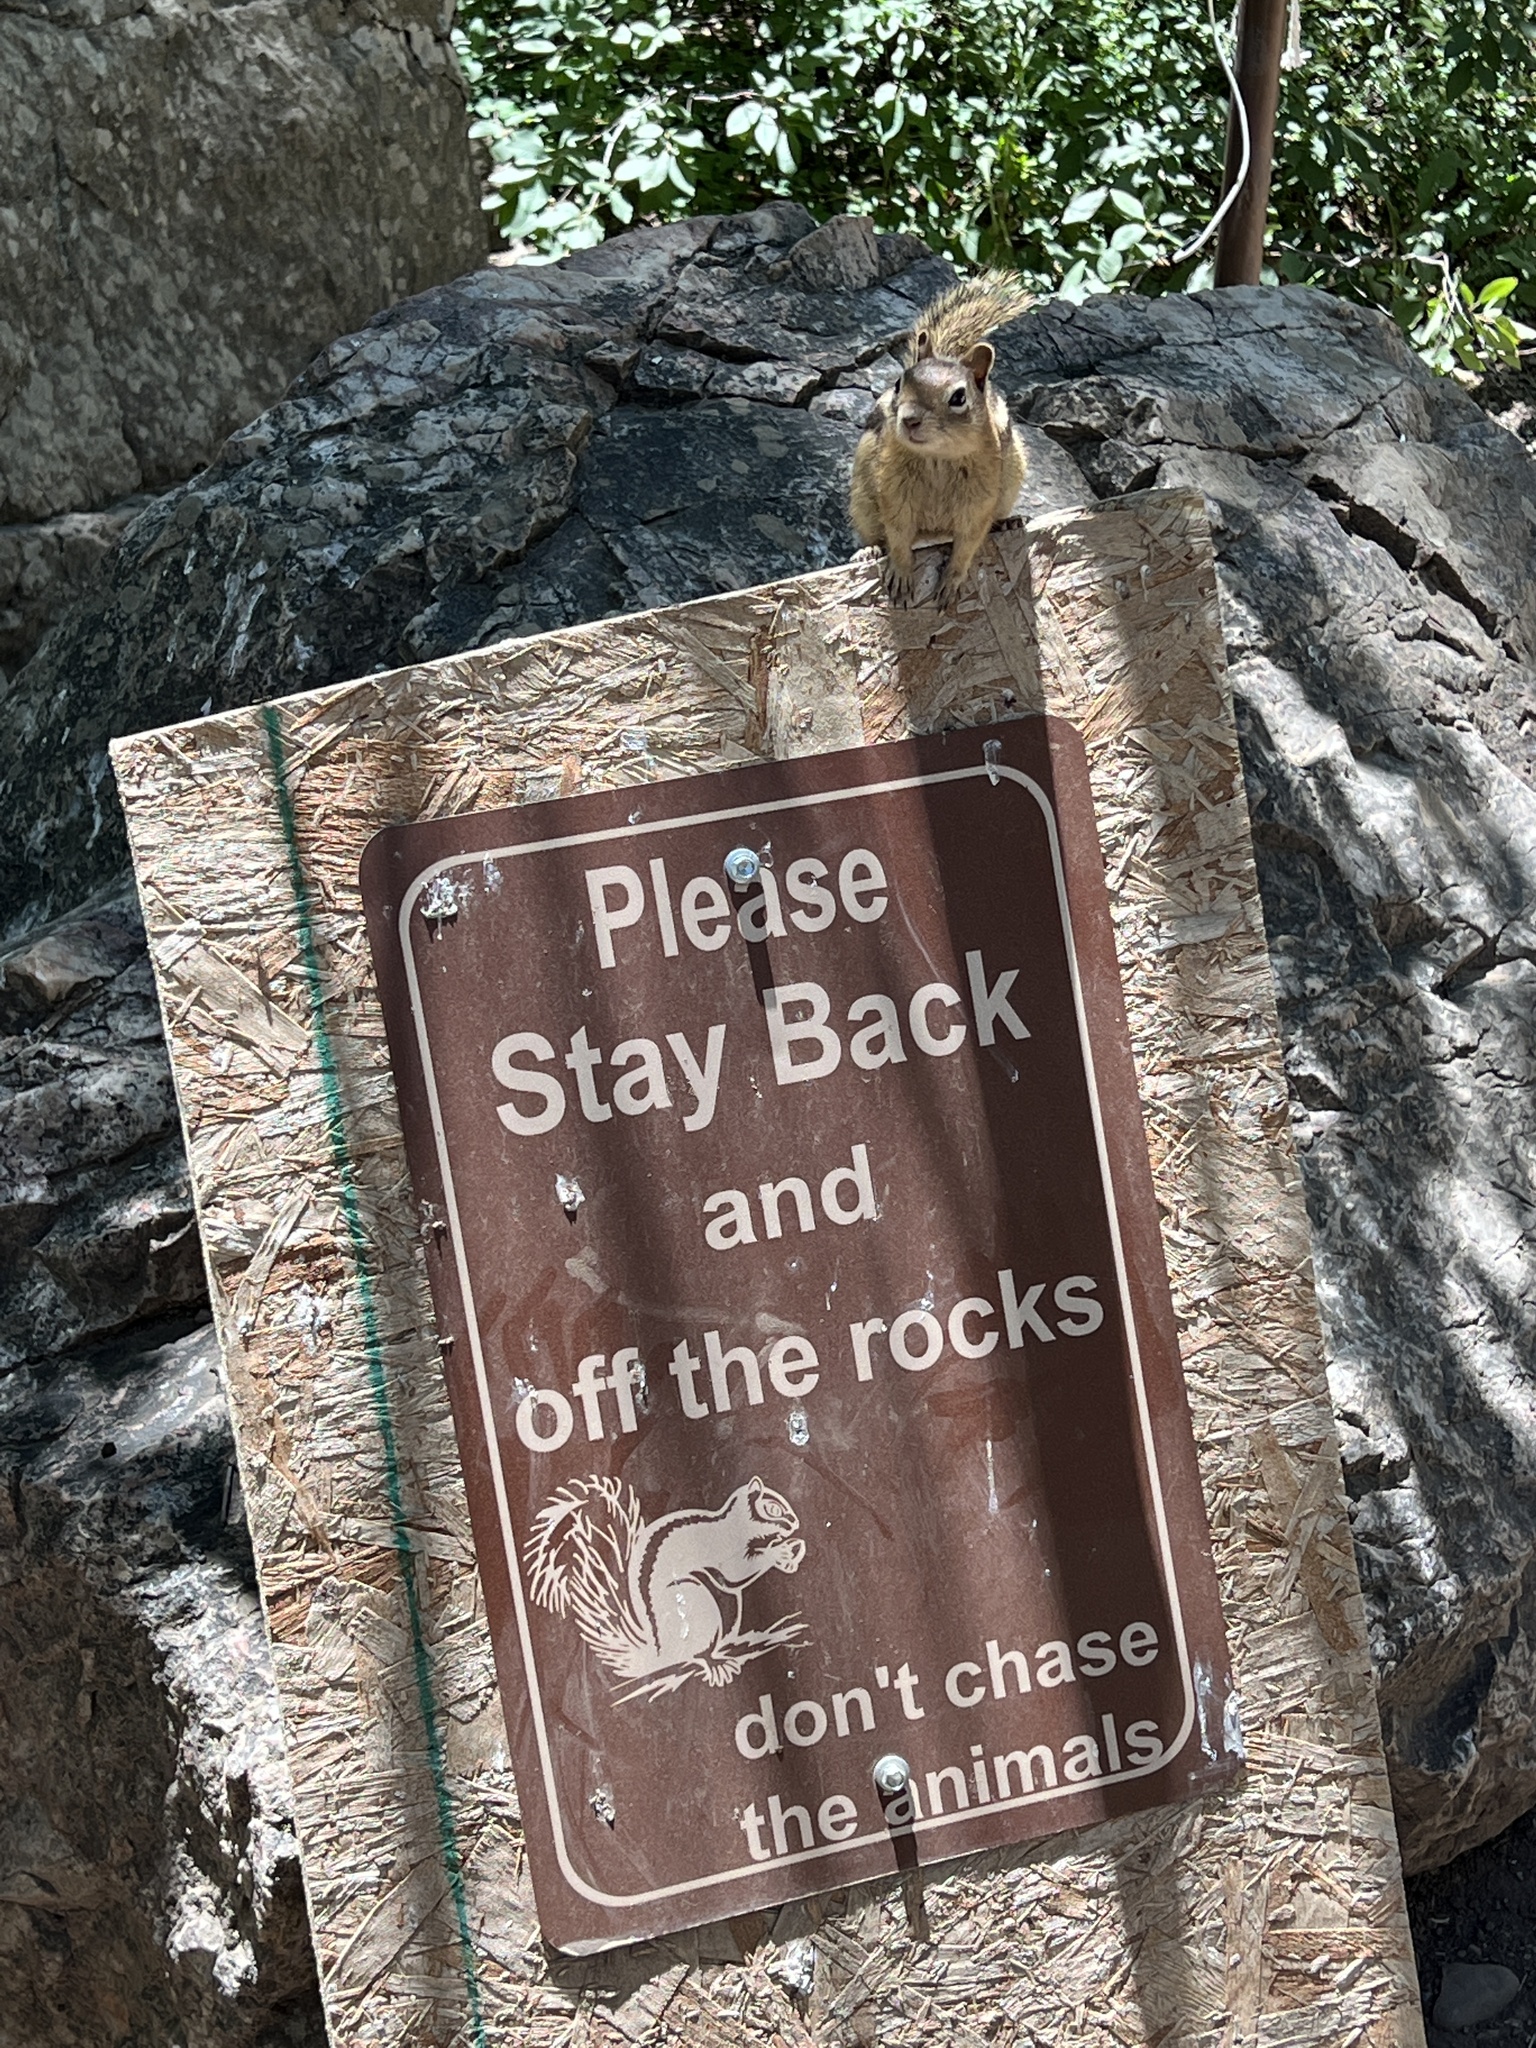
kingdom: Animalia
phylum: Chordata
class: Mammalia
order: Rodentia
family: Sciuridae
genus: Callospermophilus
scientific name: Callospermophilus lateralis
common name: Golden-mantled ground squirrel
